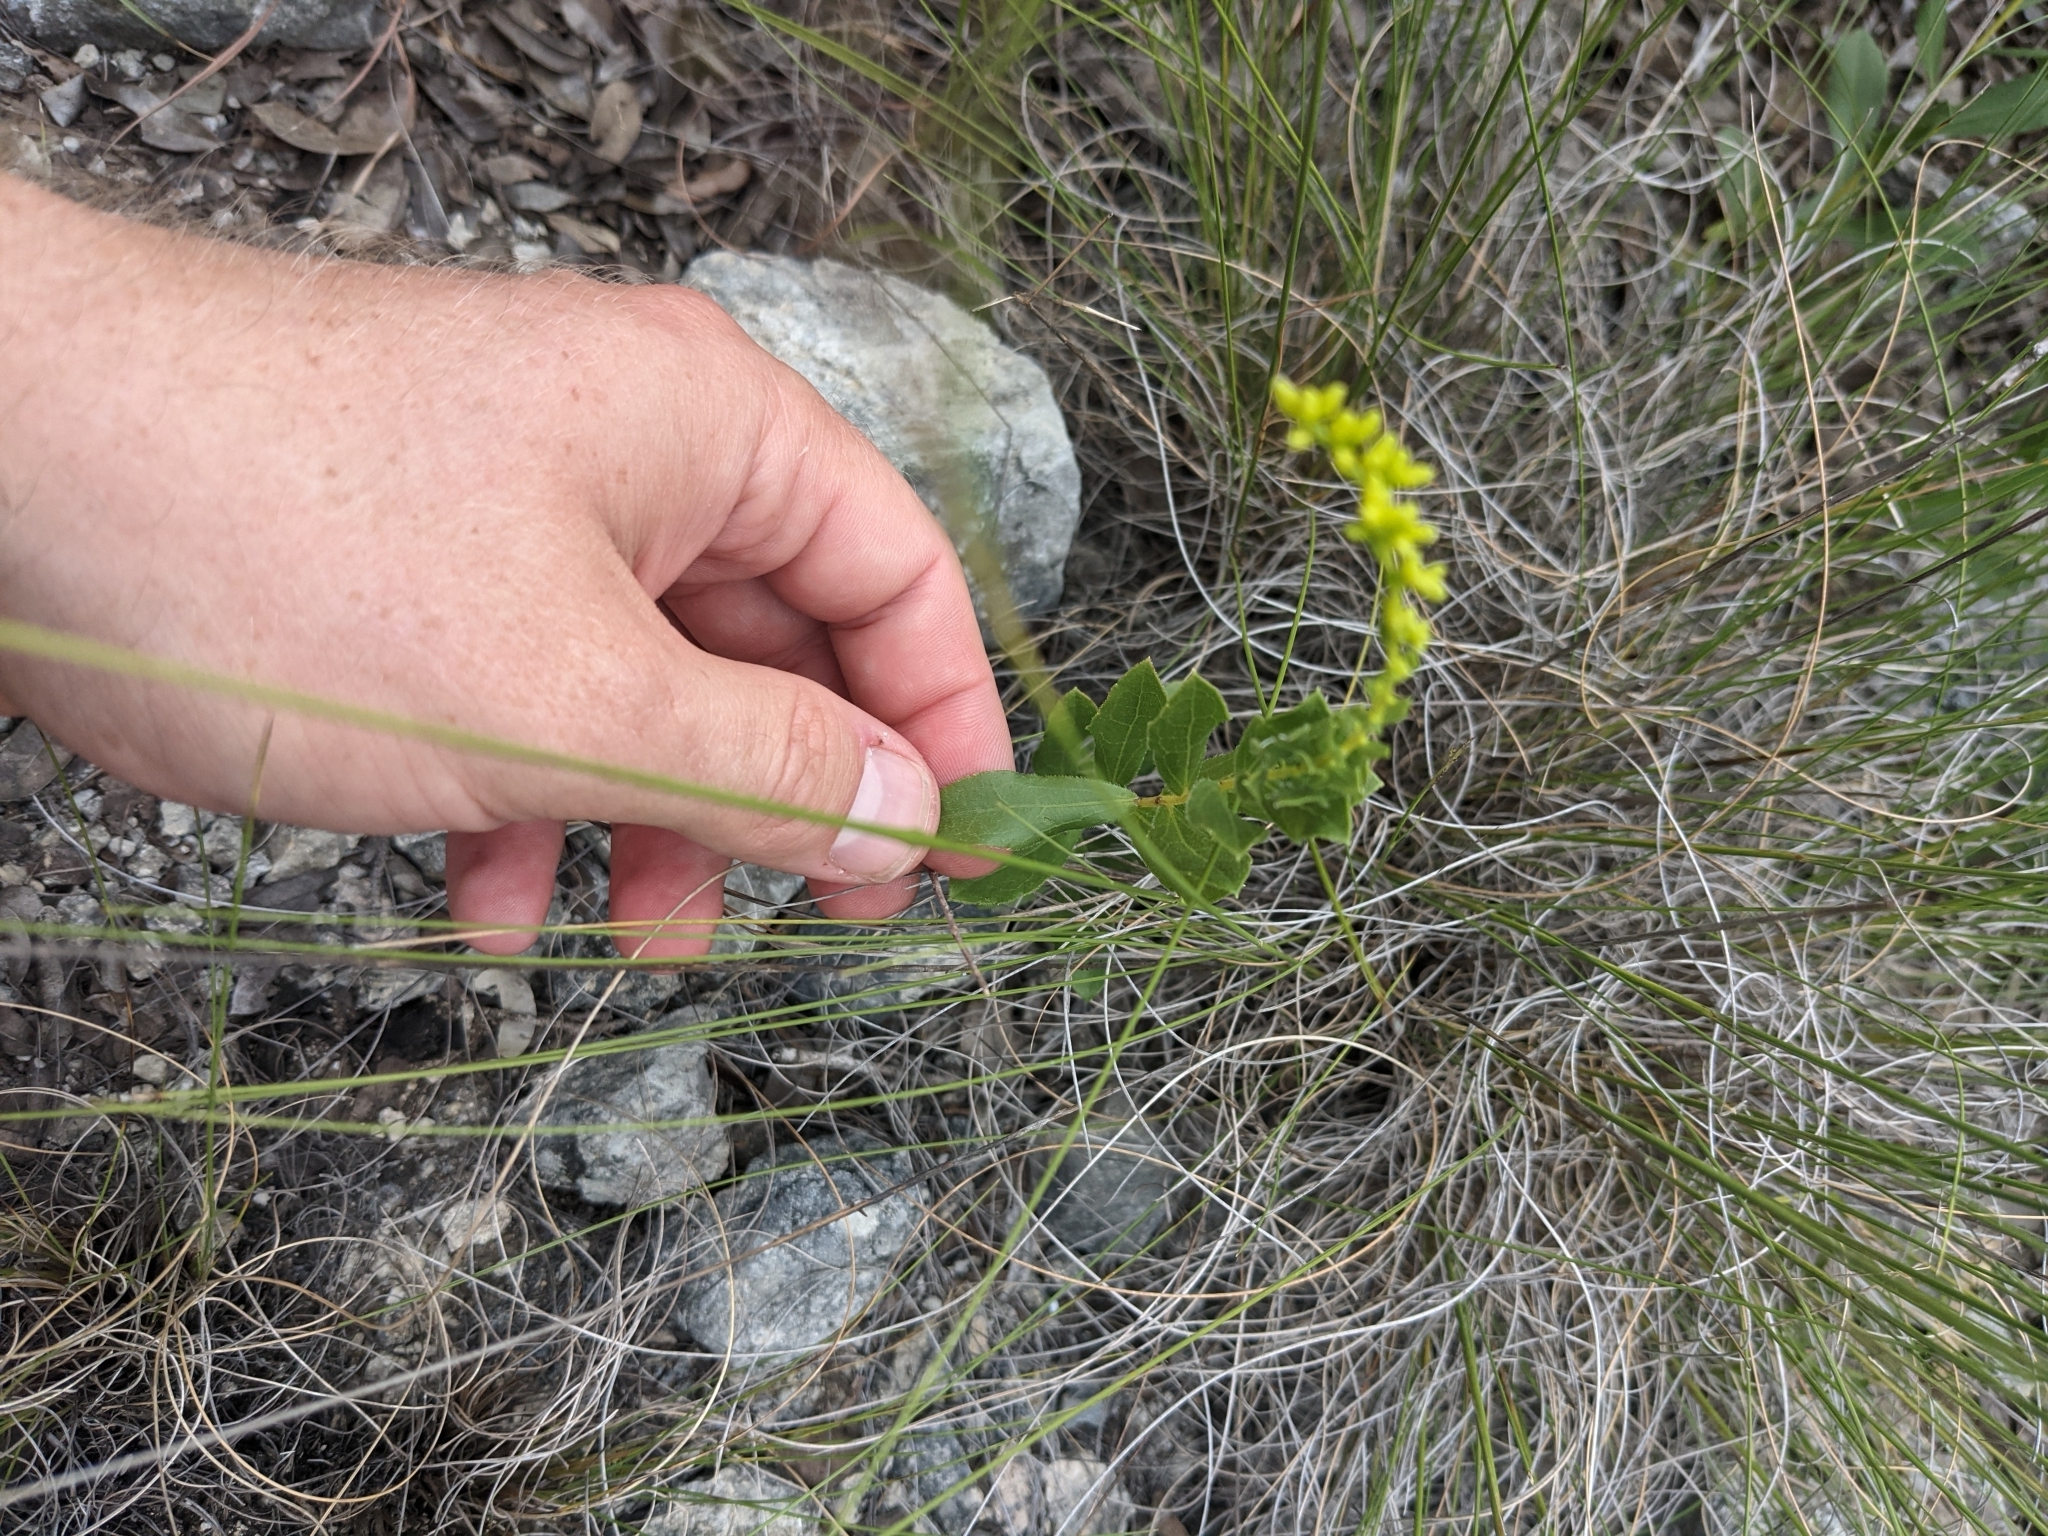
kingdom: Plantae
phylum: Tracheophyta
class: Magnoliopsida
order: Asterales
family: Asteraceae
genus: Solidago
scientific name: Solidago radula
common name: Western rough goldenrod
